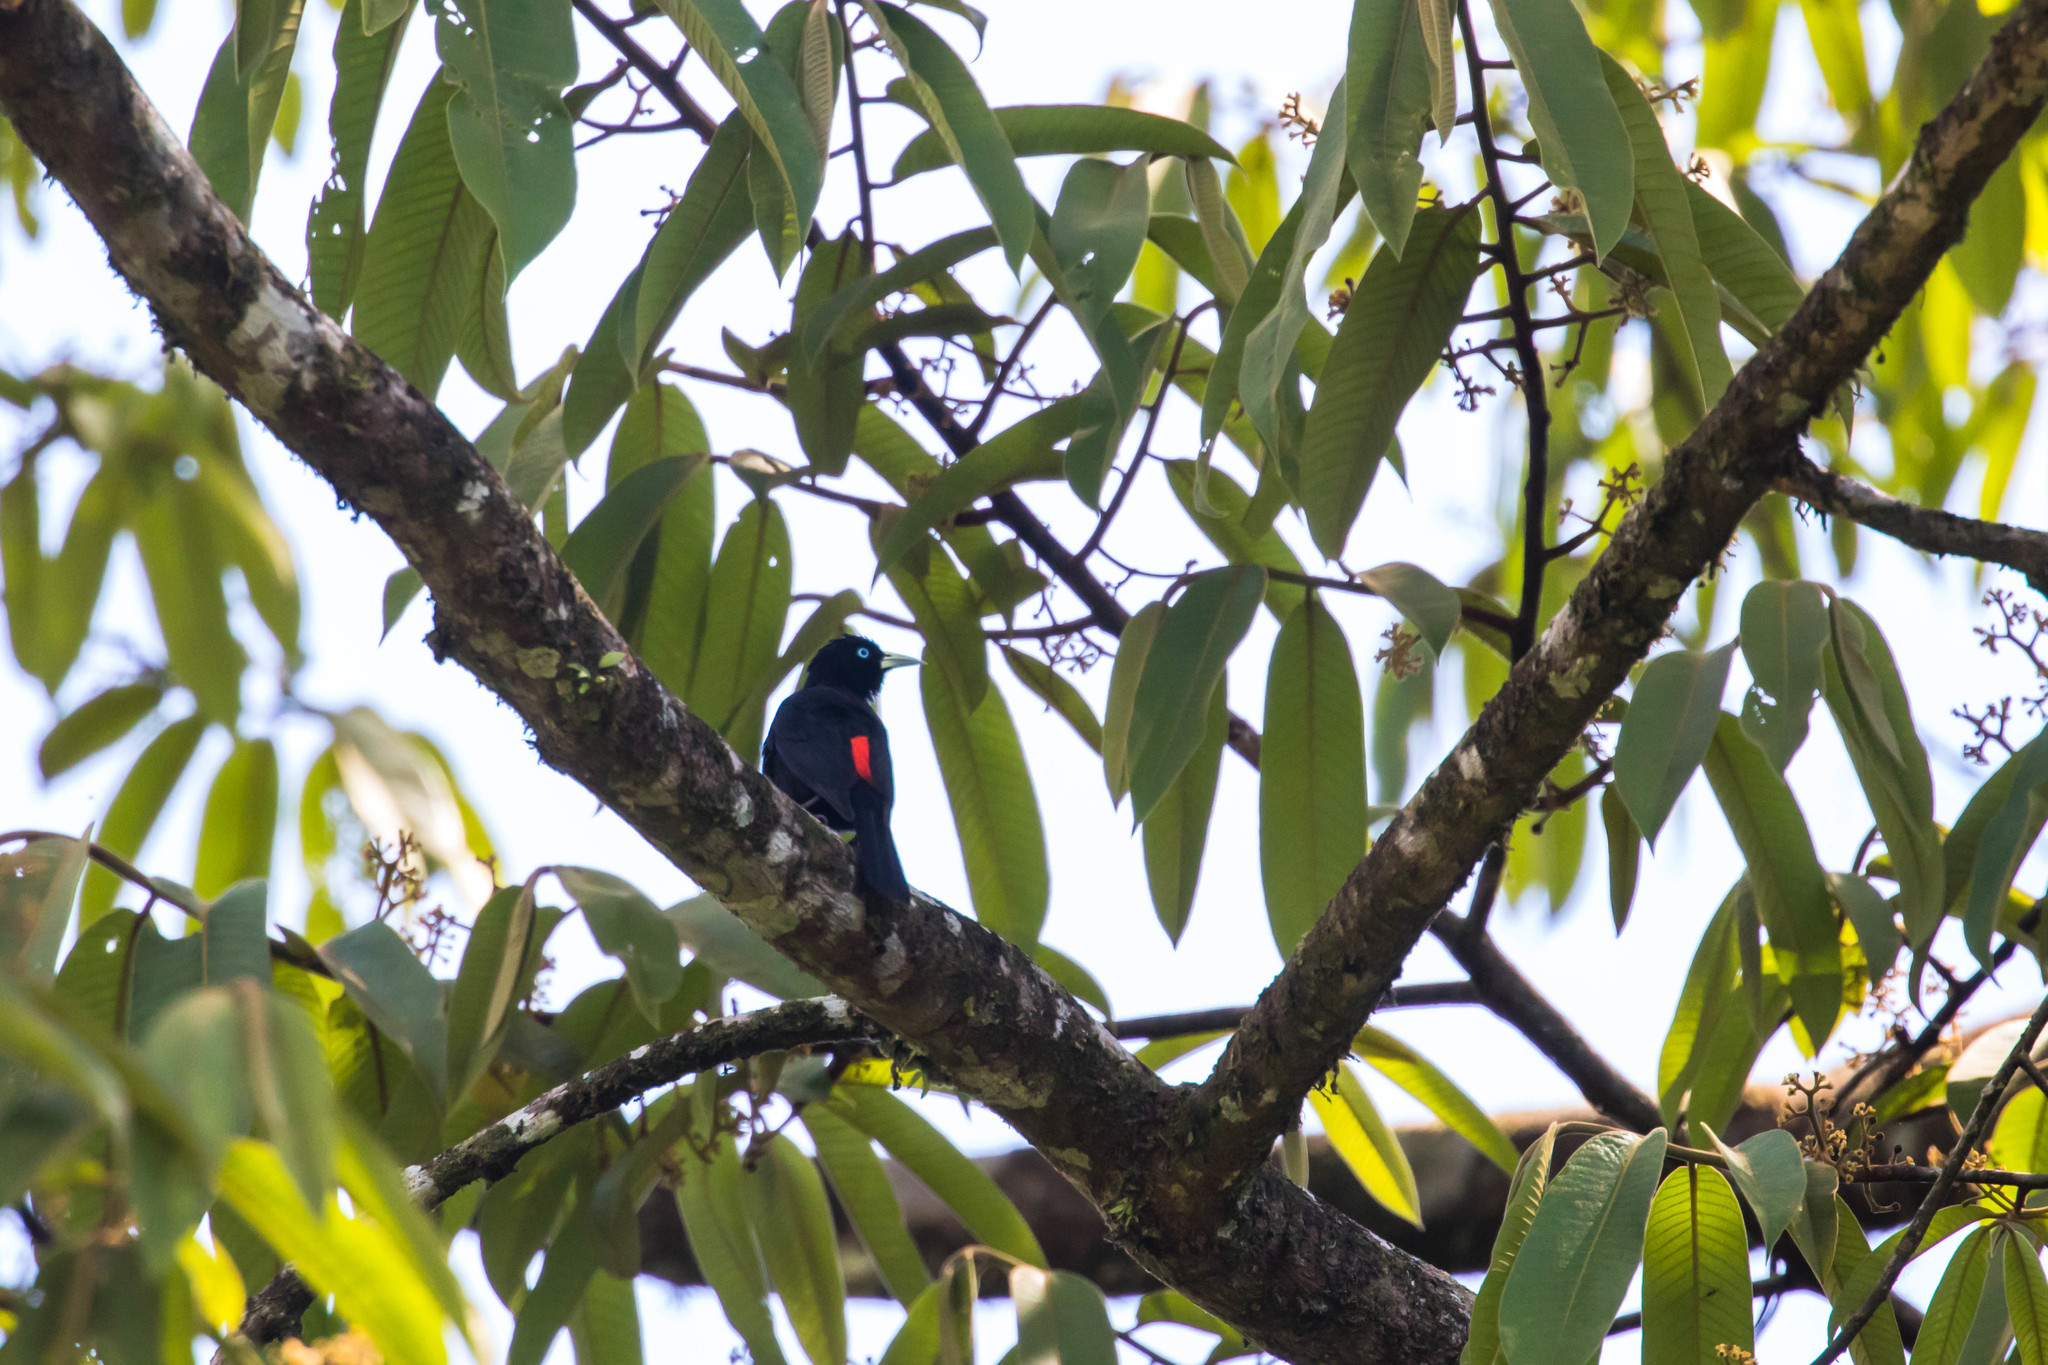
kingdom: Animalia
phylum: Chordata
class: Aves
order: Passeriformes
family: Icteridae
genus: Cacicus
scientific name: Cacicus uropygialis
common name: Scarlet-rumped cacique
